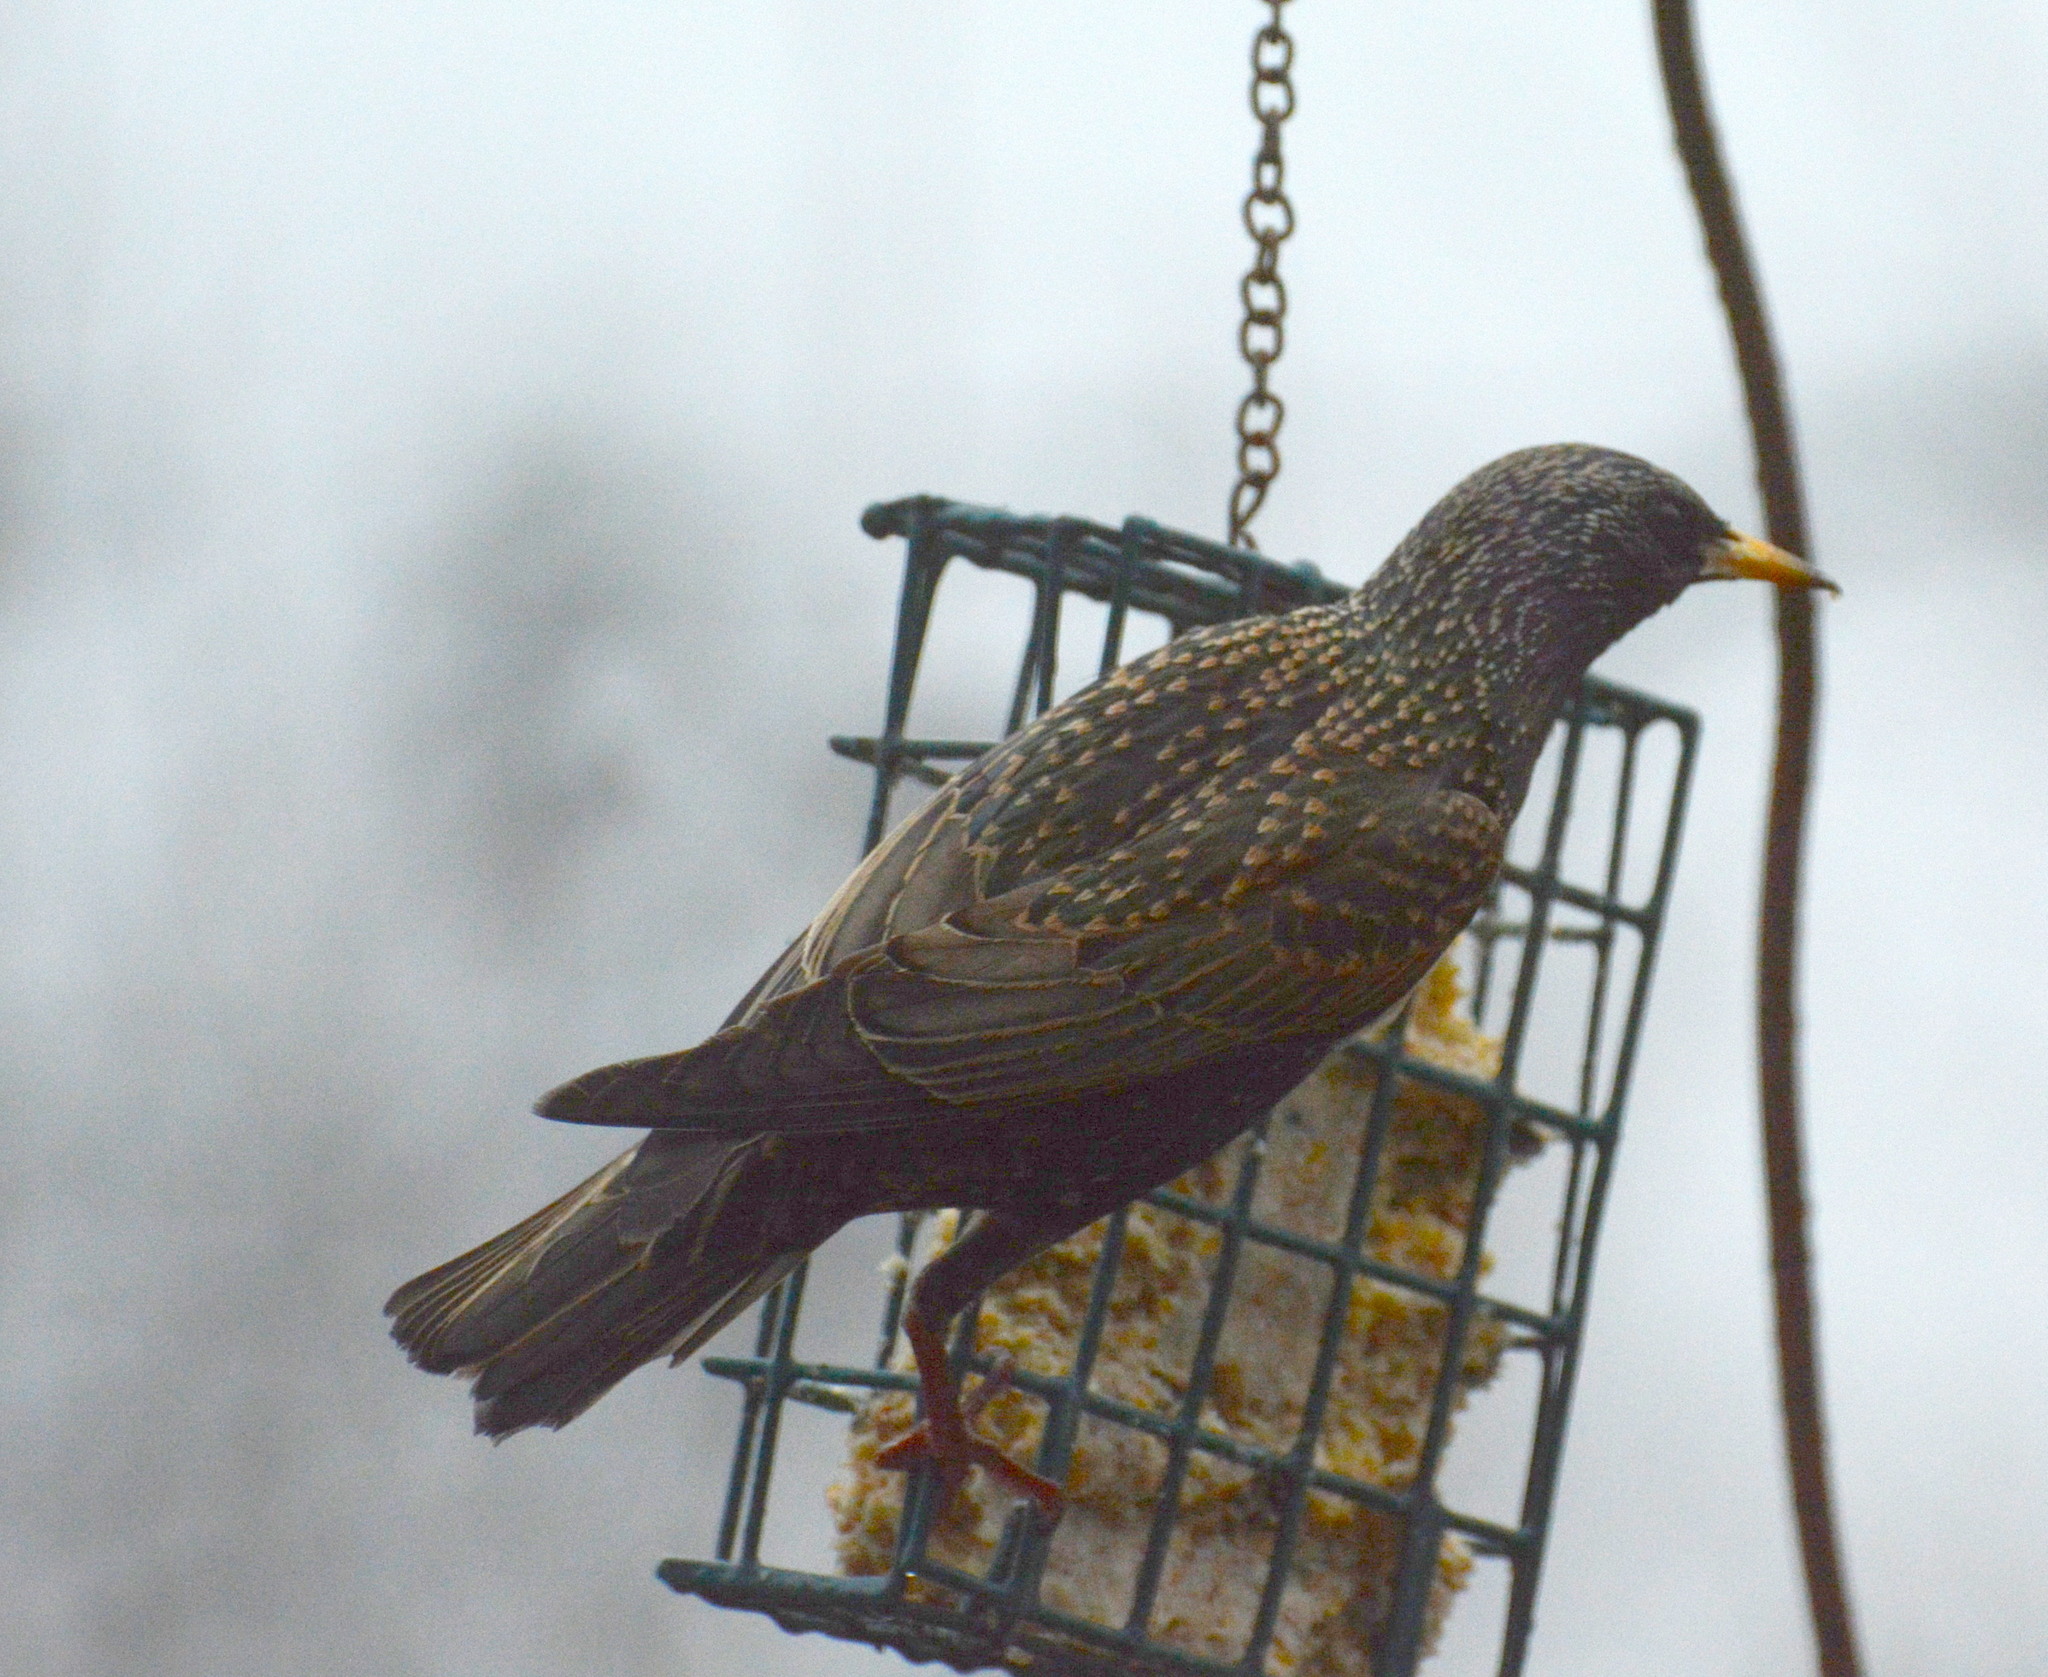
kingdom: Animalia
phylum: Chordata
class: Aves
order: Passeriformes
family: Sturnidae
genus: Sturnus
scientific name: Sturnus vulgaris
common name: Common starling
